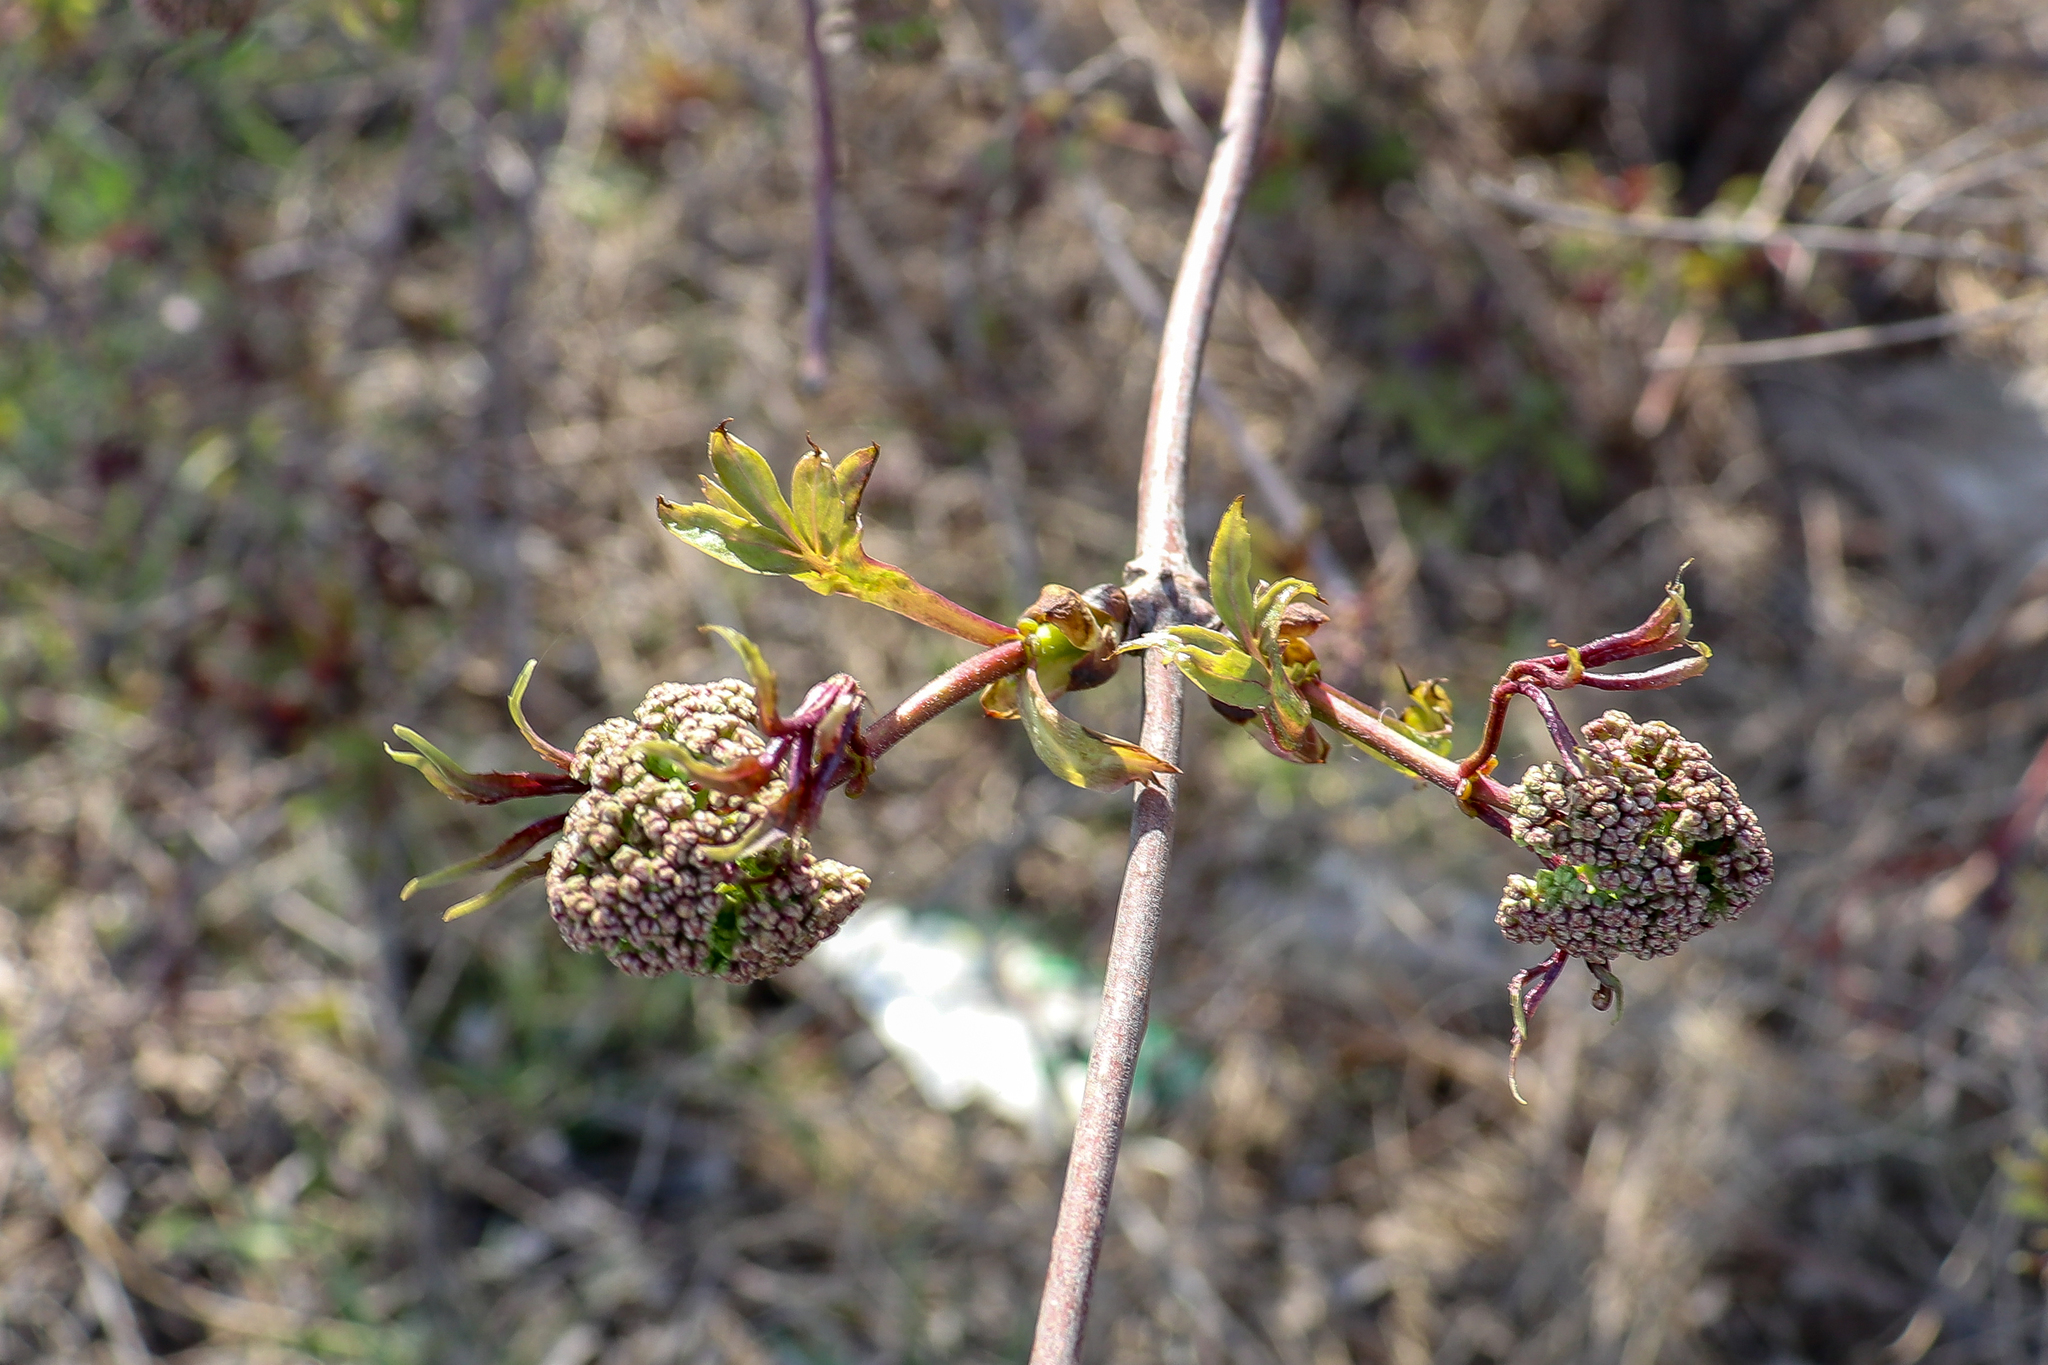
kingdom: Plantae
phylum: Tracheophyta
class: Magnoliopsida
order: Dipsacales
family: Viburnaceae
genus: Sambucus
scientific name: Sambucus racemosa
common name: Red-berried elder
